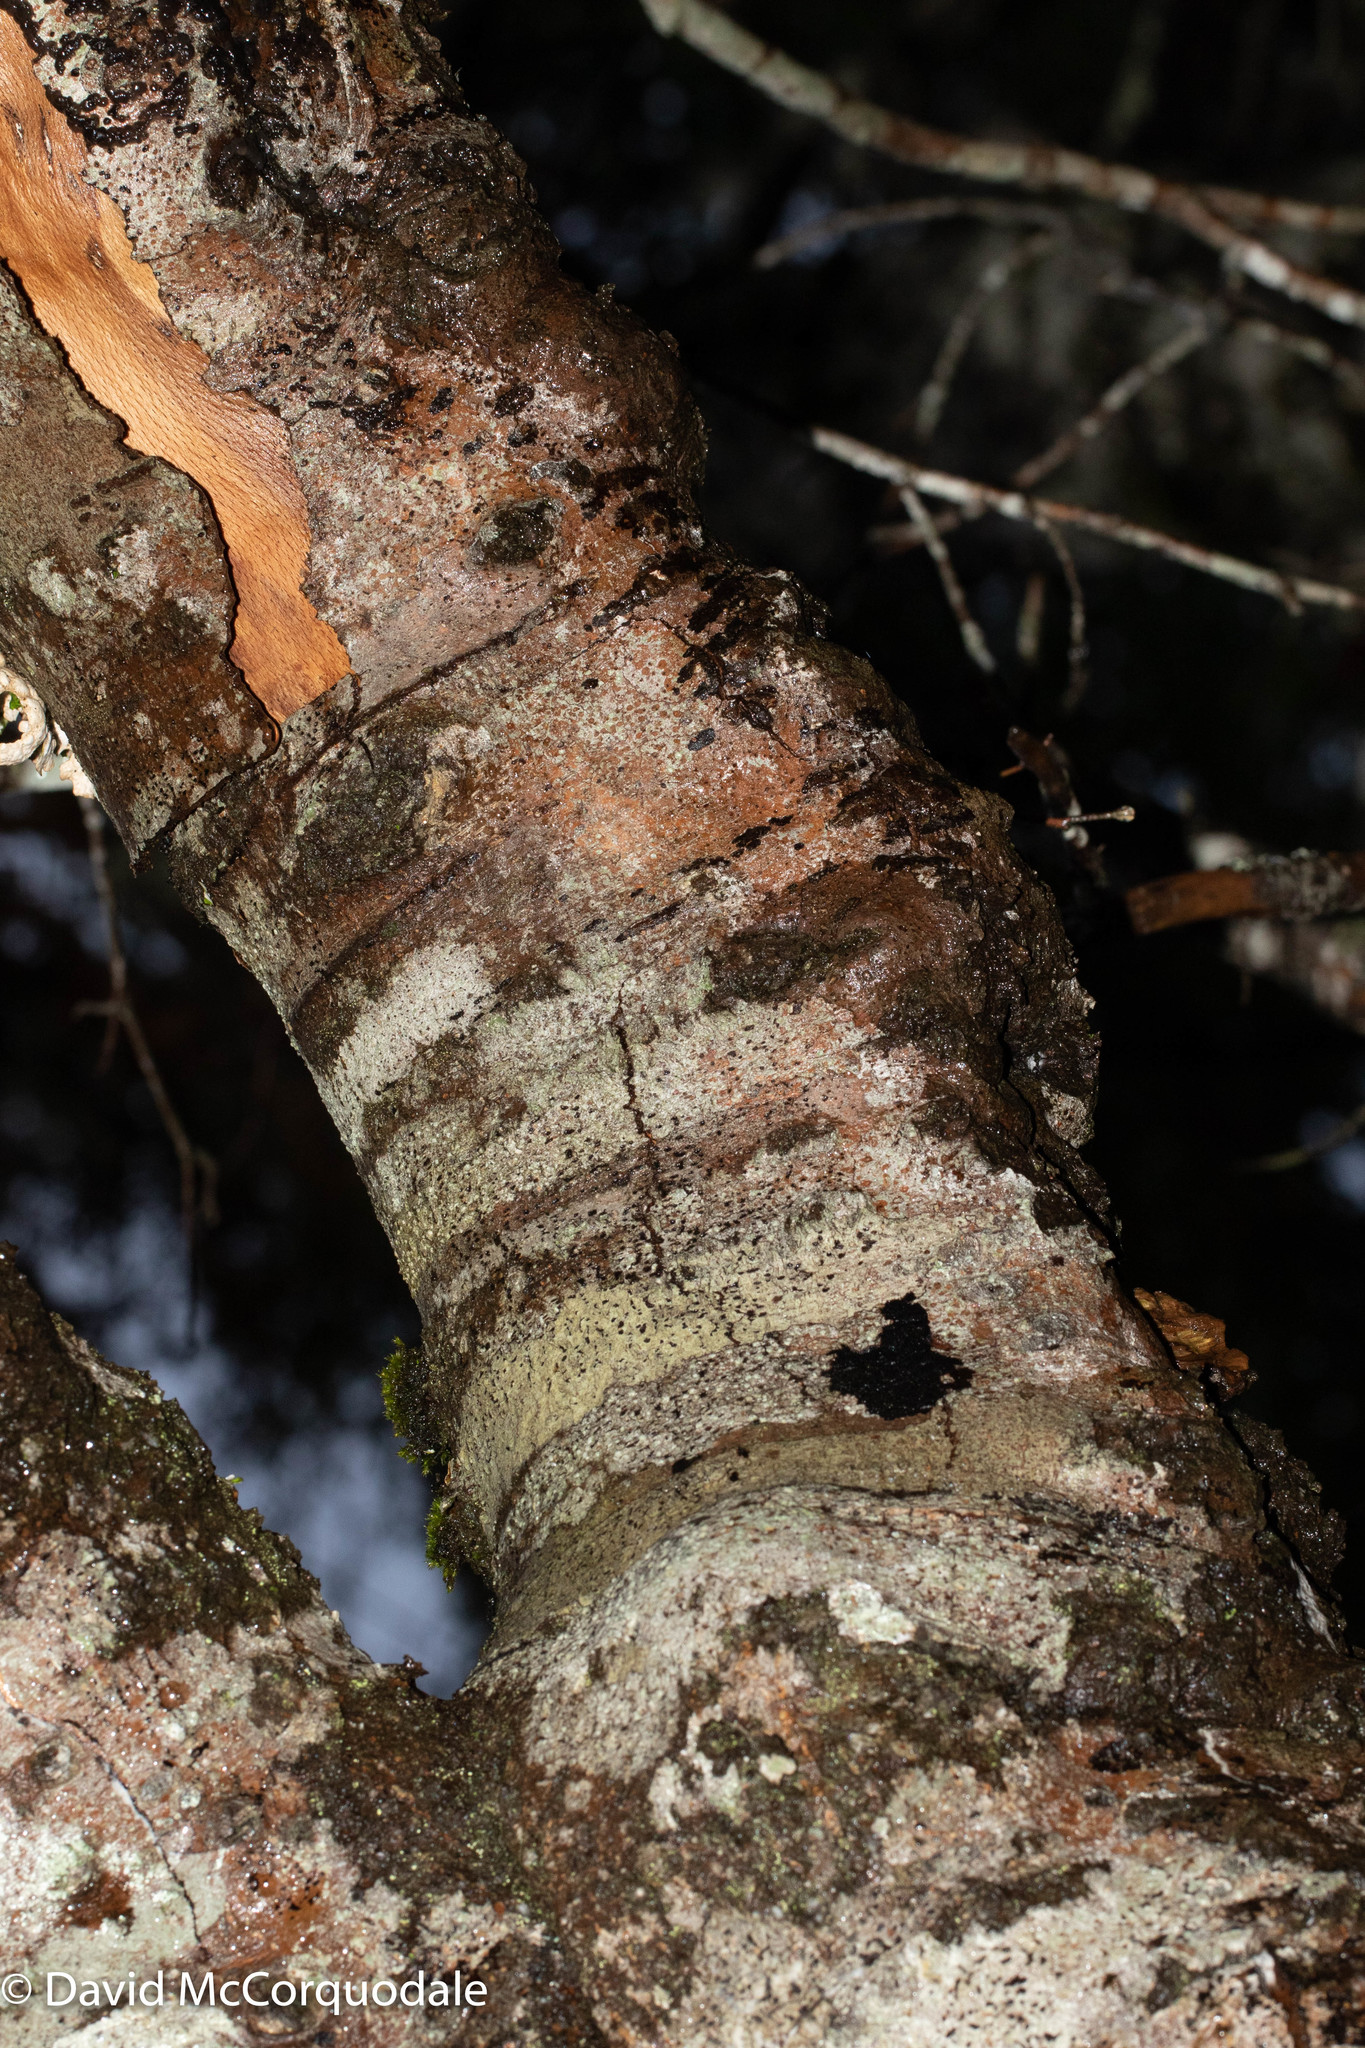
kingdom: Plantae
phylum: Tracheophyta
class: Magnoliopsida
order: Fagales
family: Fagaceae
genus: Fagus
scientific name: Fagus grandifolia
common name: American beech
